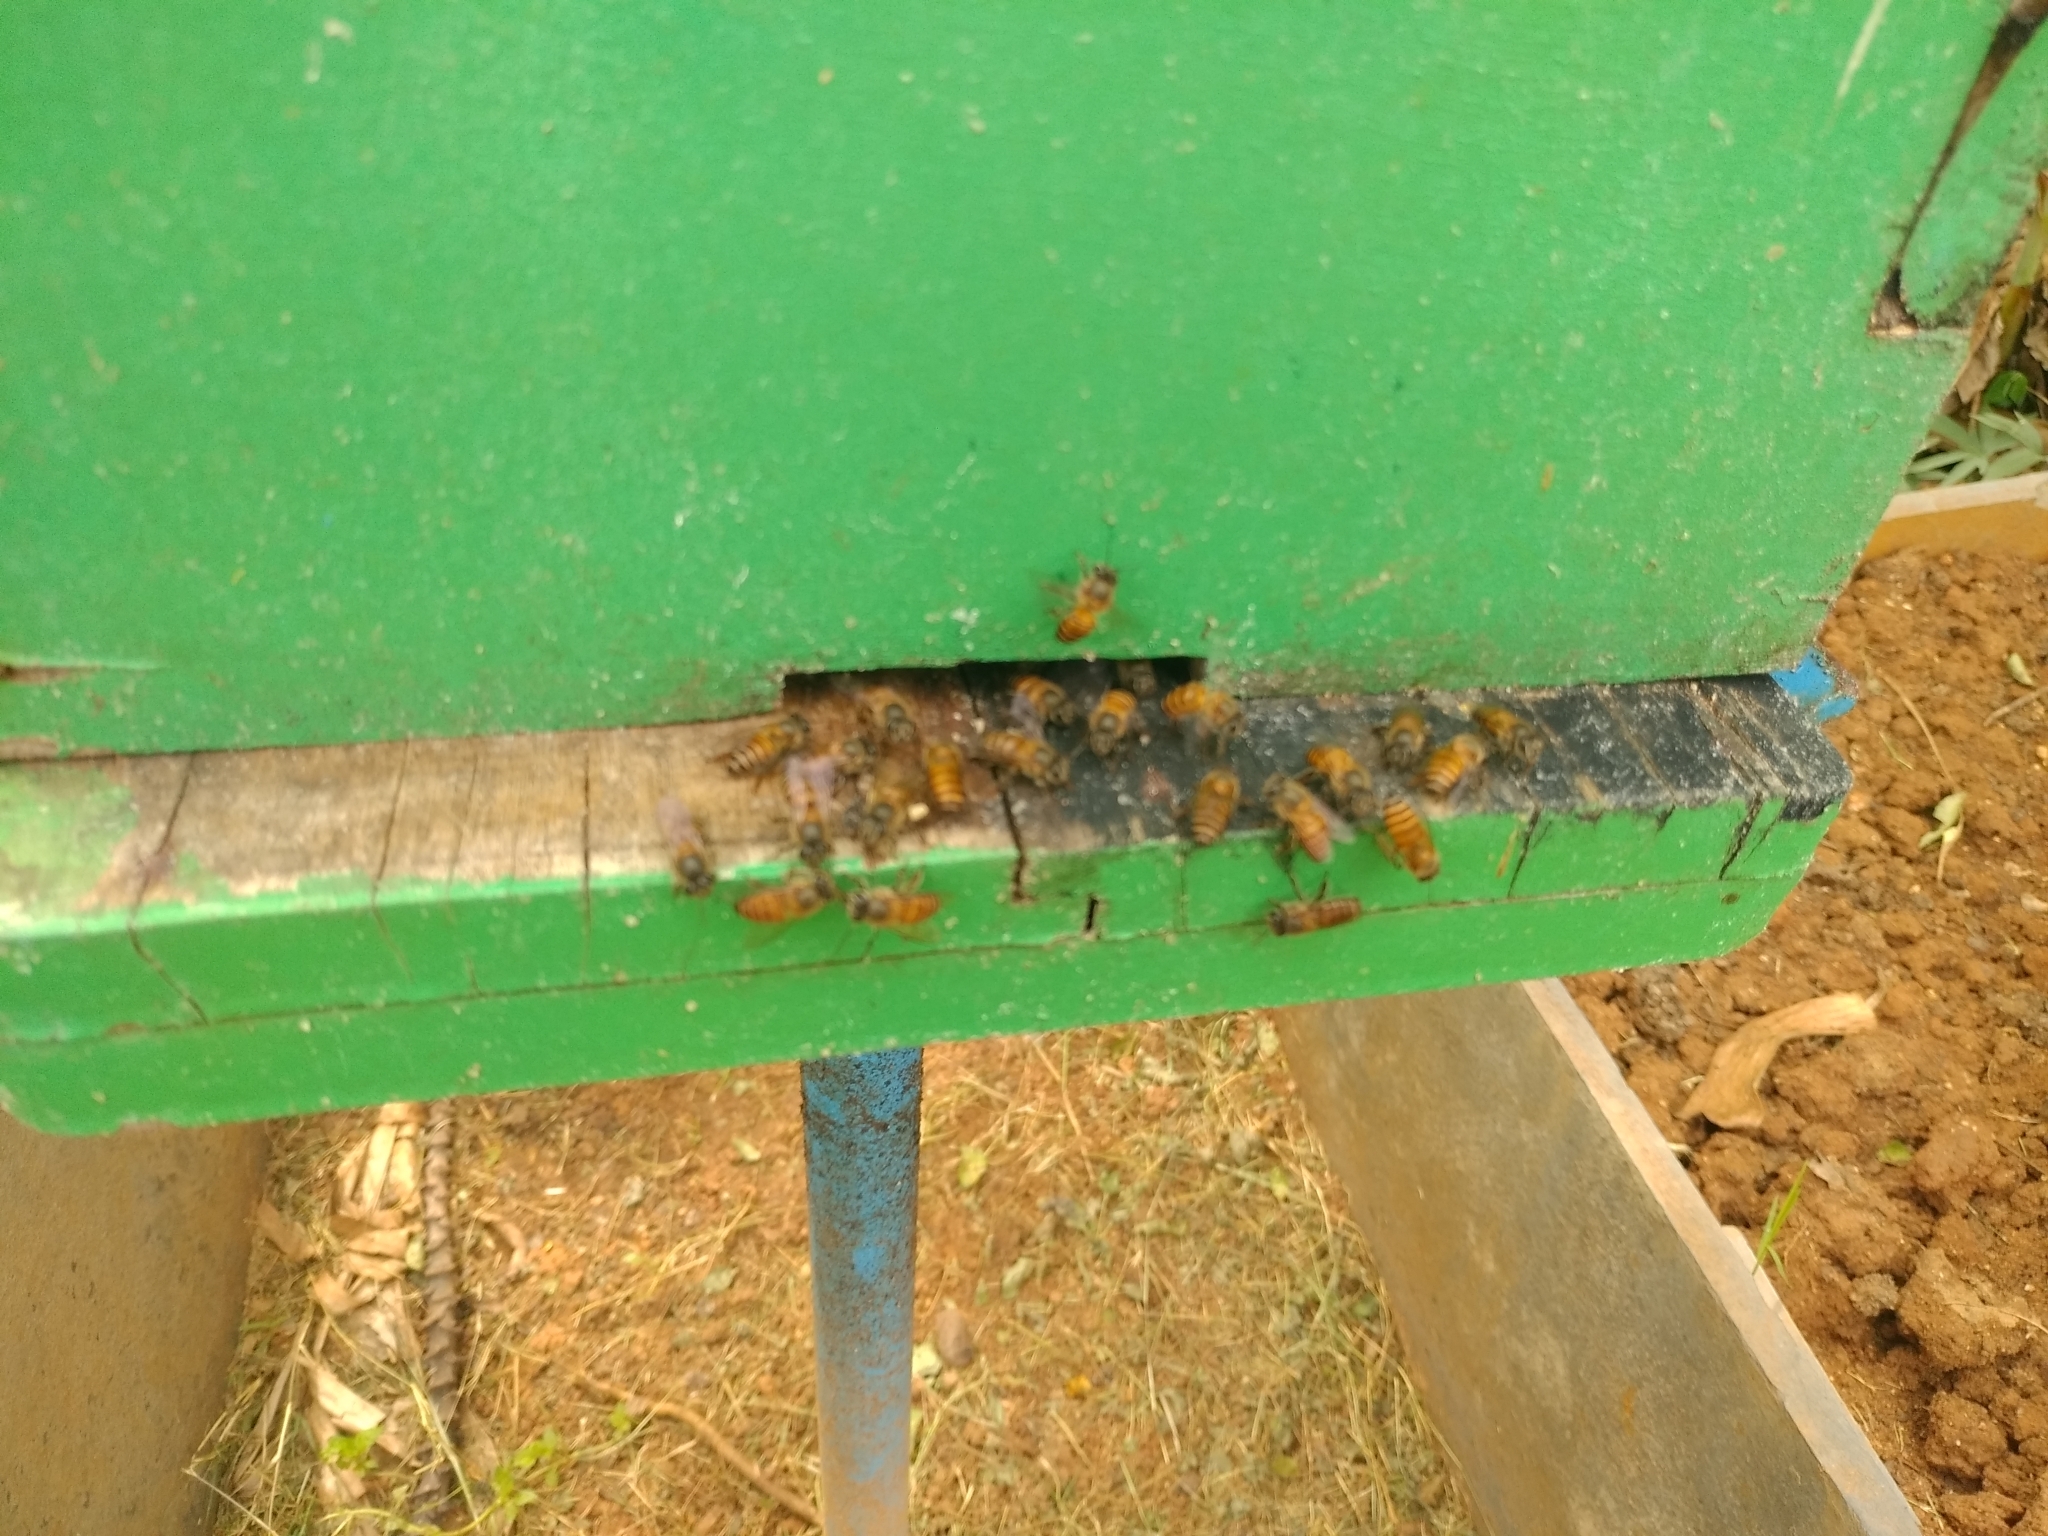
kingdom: Animalia
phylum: Arthropoda
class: Insecta
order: Hymenoptera
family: Apidae
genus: Apis
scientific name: Apis cerana
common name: Honey bee
